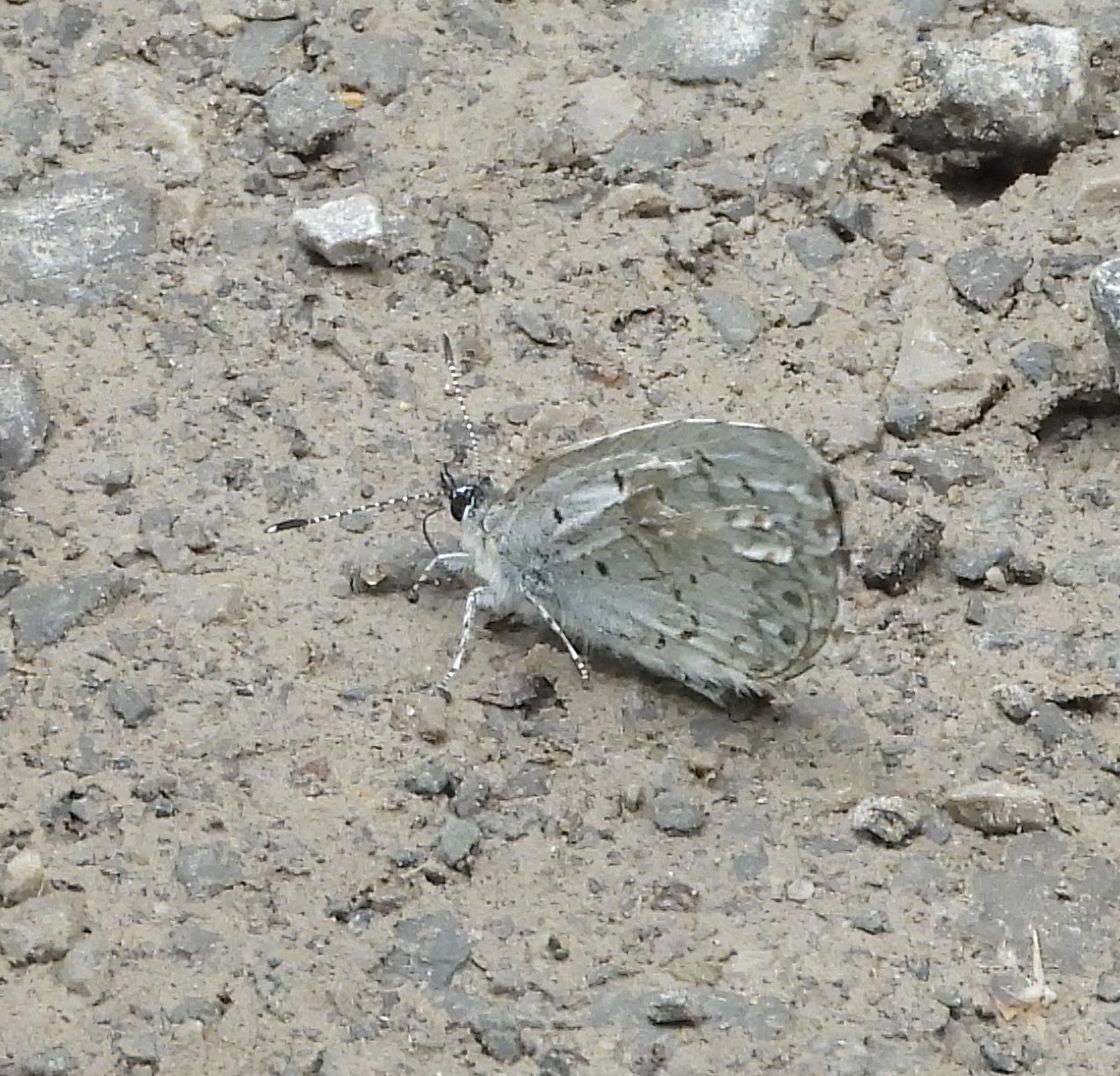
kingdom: Animalia
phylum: Arthropoda
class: Insecta
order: Lepidoptera
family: Lycaenidae
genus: Celastrina
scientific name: Celastrina lucia
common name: Lucia azure
